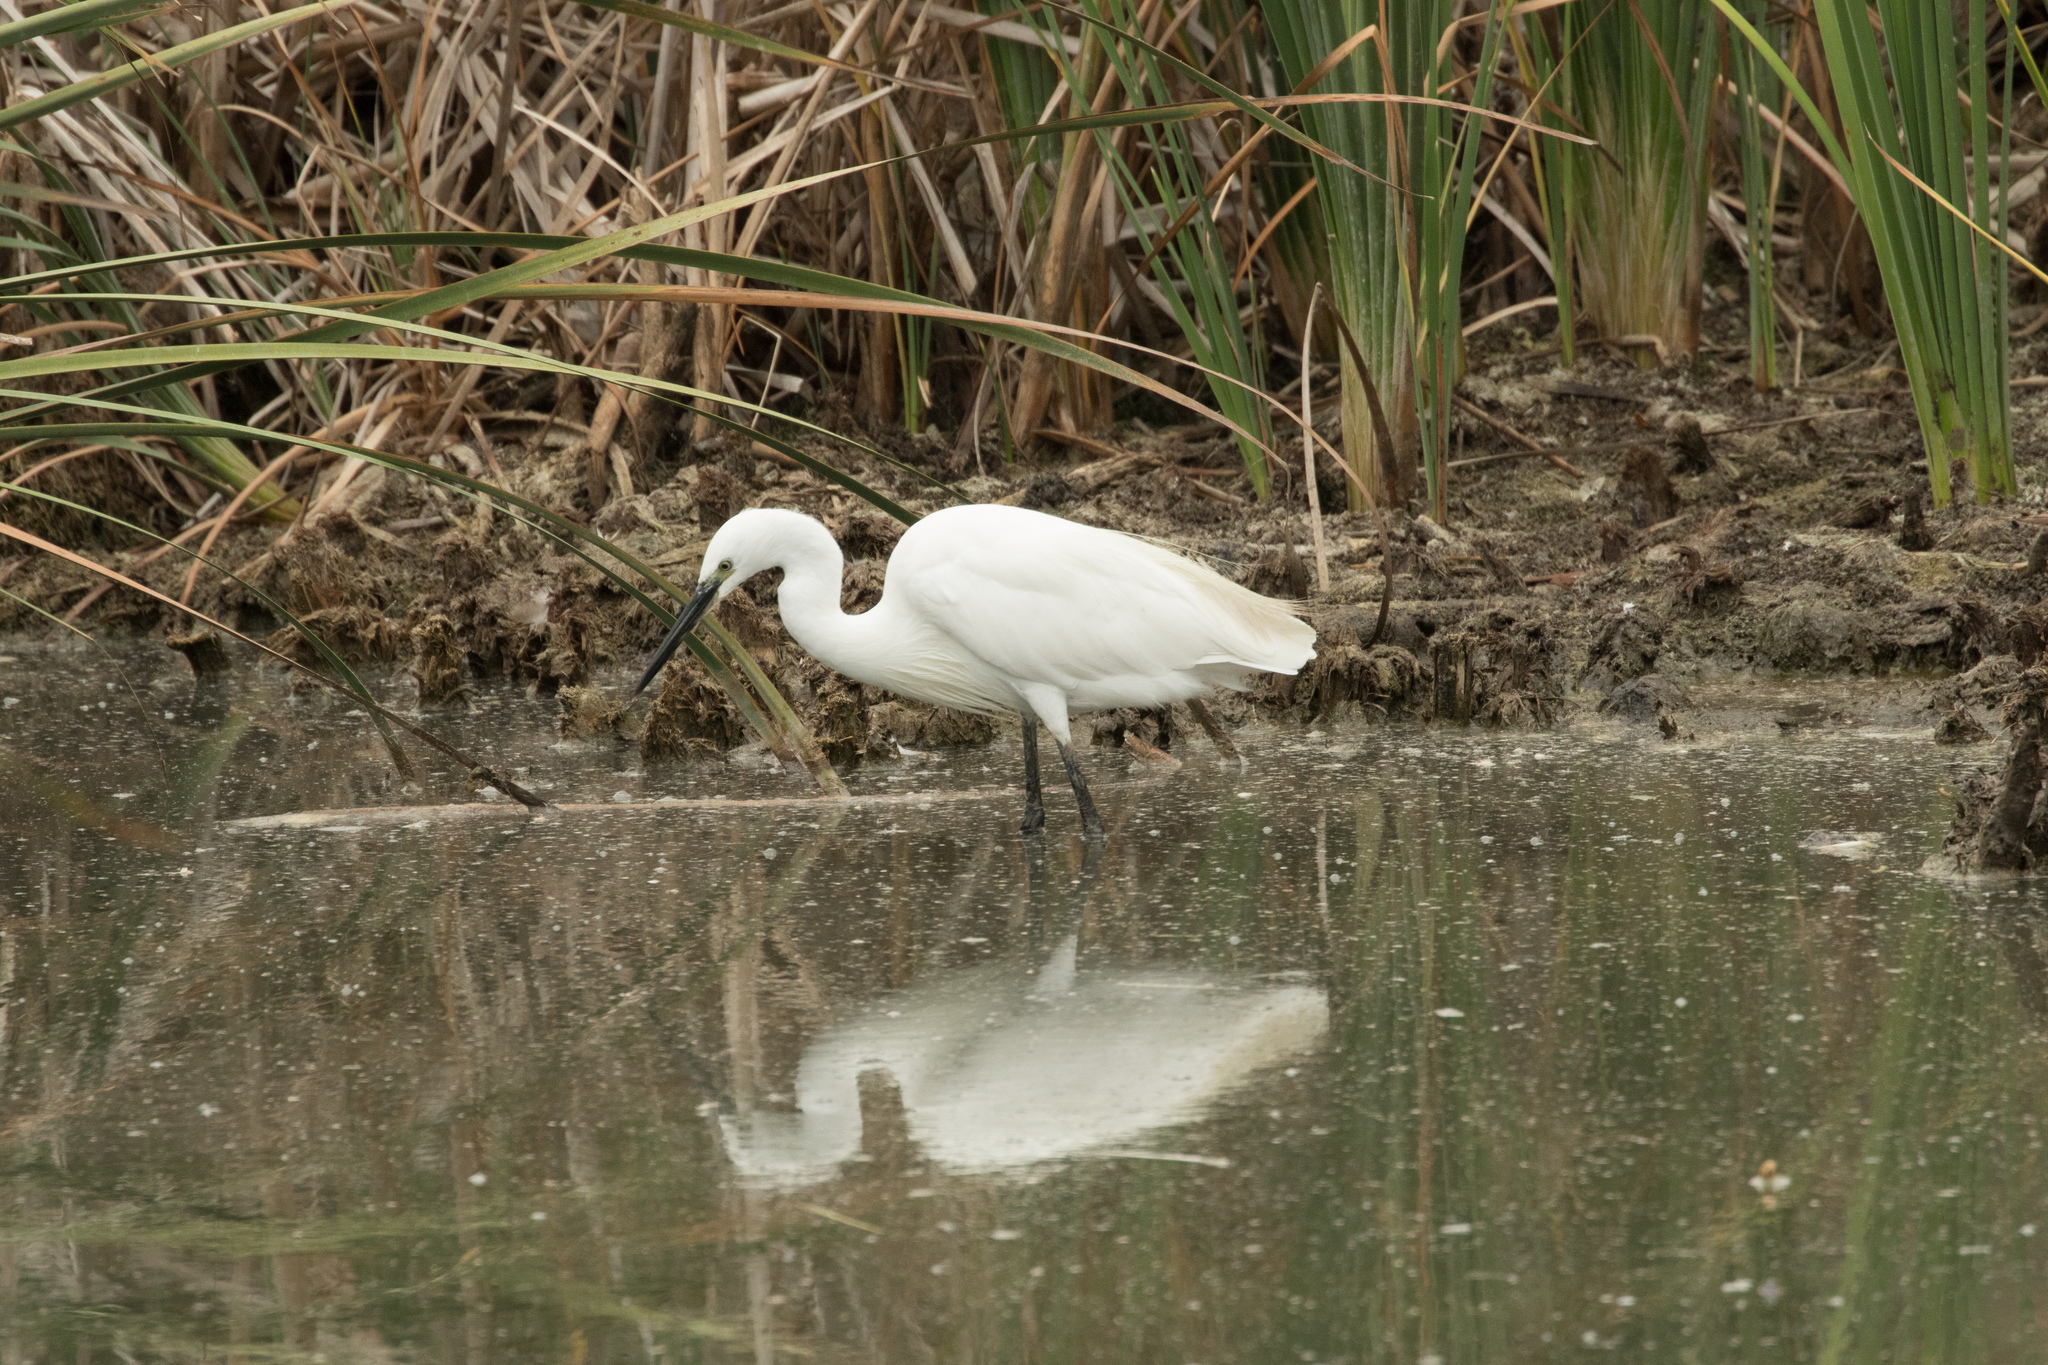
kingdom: Animalia
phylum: Chordata
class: Aves
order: Pelecaniformes
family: Ardeidae
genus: Egretta
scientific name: Egretta garzetta
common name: Little egret
